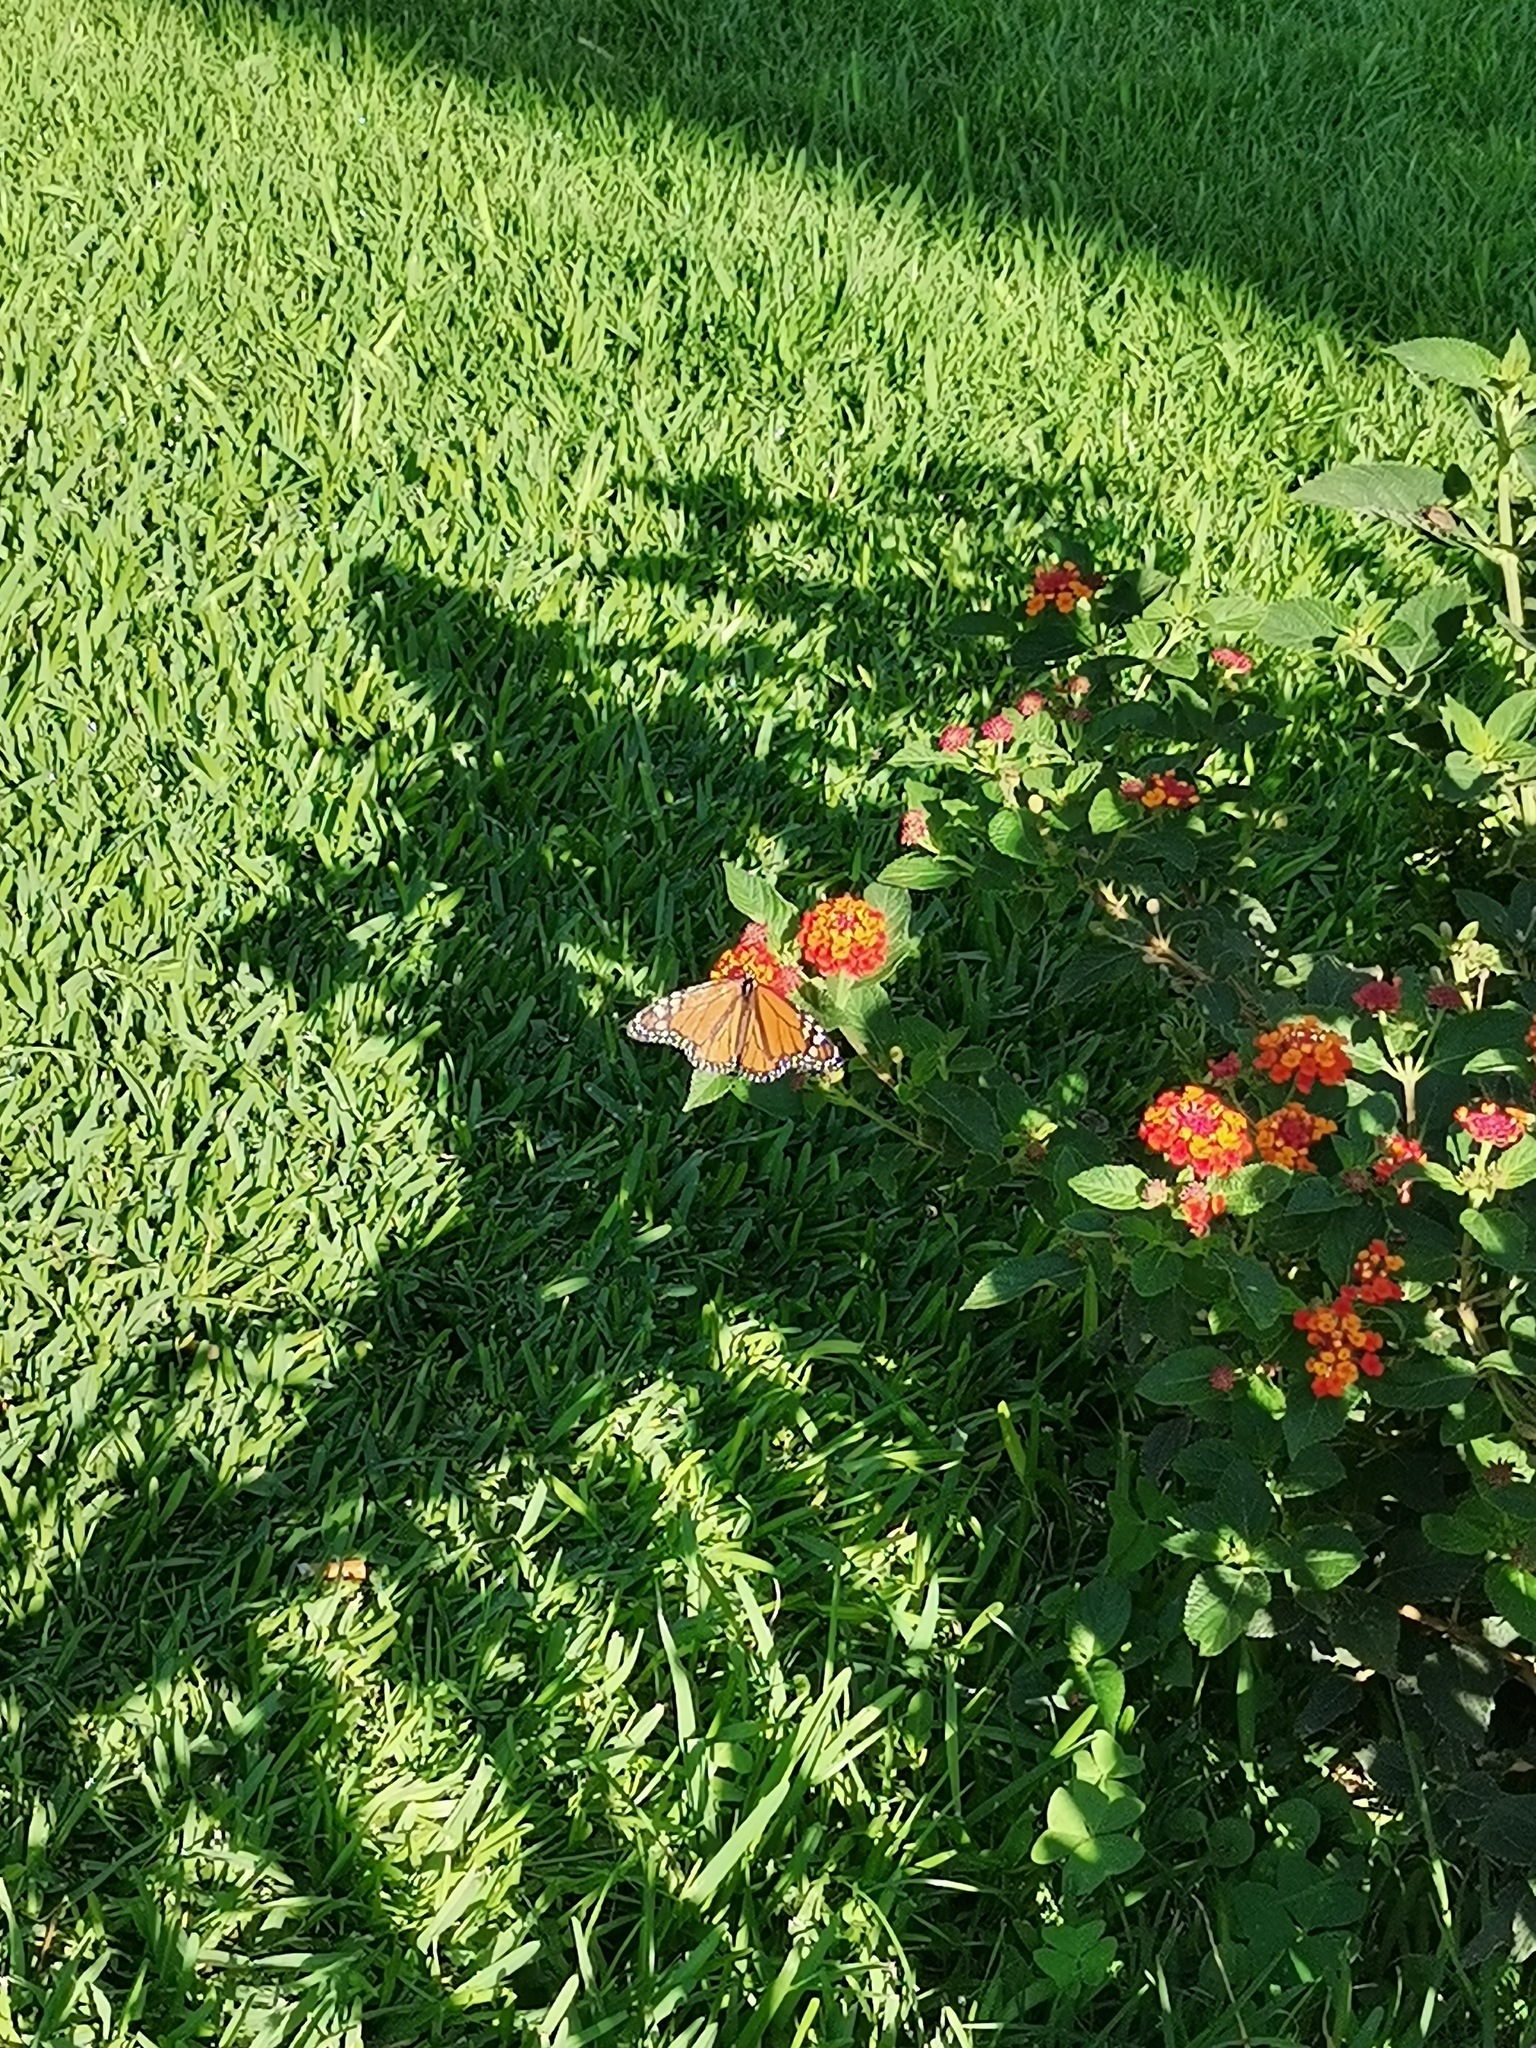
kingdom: Animalia
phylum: Arthropoda
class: Insecta
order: Lepidoptera
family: Nymphalidae
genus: Danaus
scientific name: Danaus plexippus
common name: Monarch
